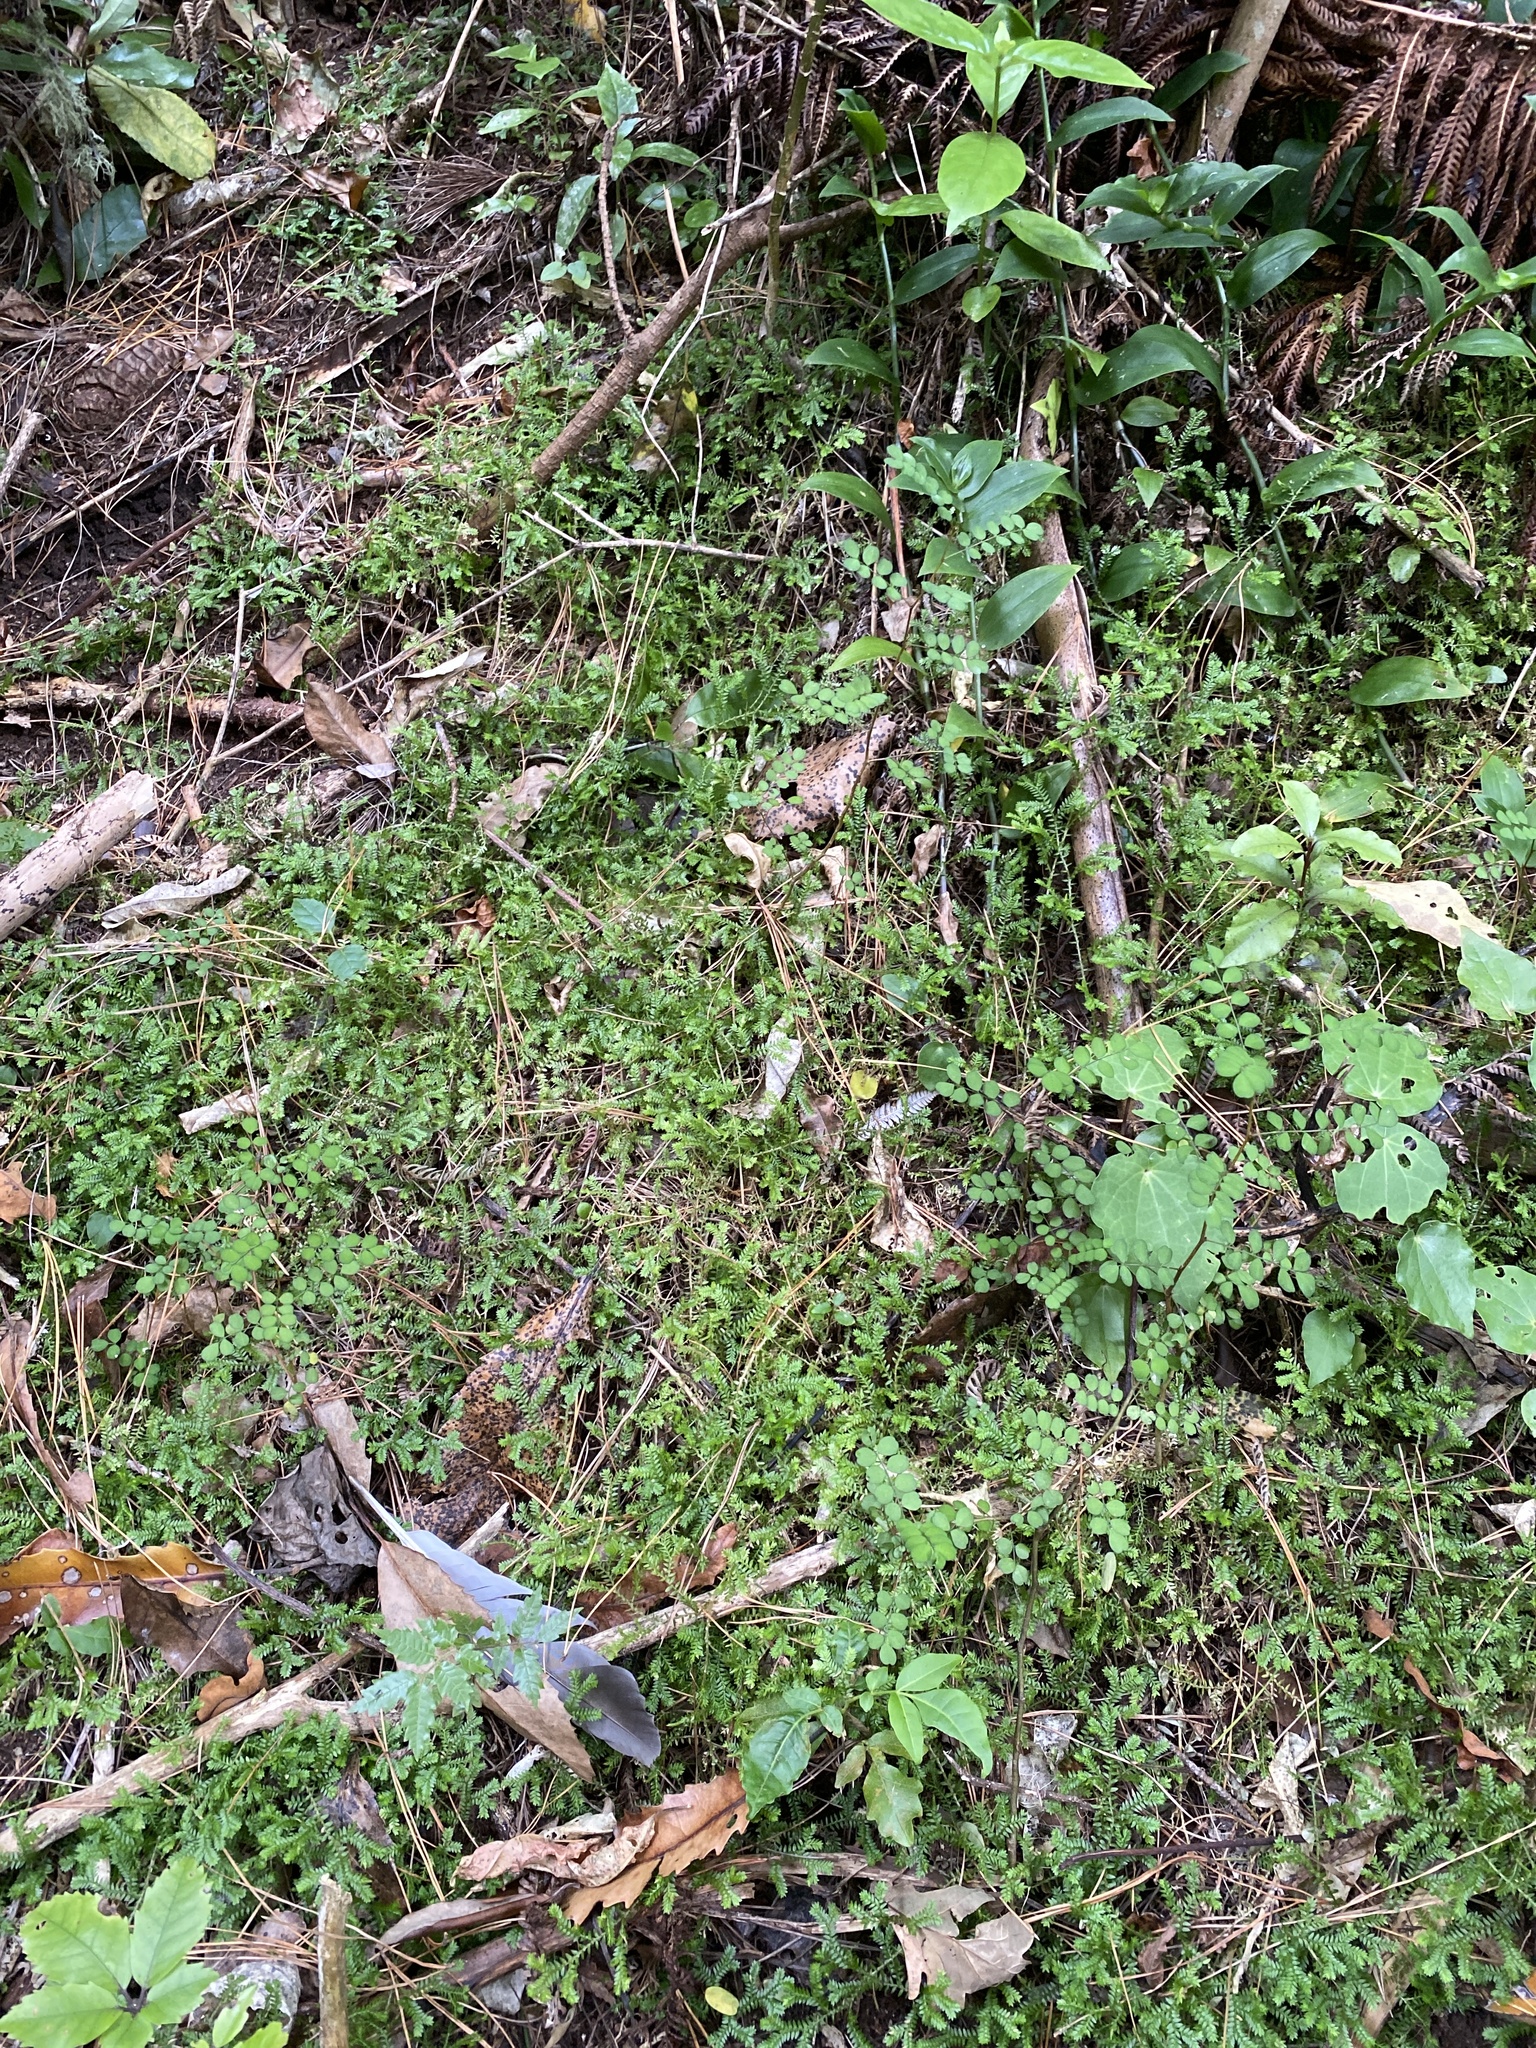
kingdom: Plantae
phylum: Tracheophyta
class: Lycopodiopsida
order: Selaginellales
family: Selaginellaceae
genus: Selaginella
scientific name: Selaginella kraussiana
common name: Krauss' spikemoss
